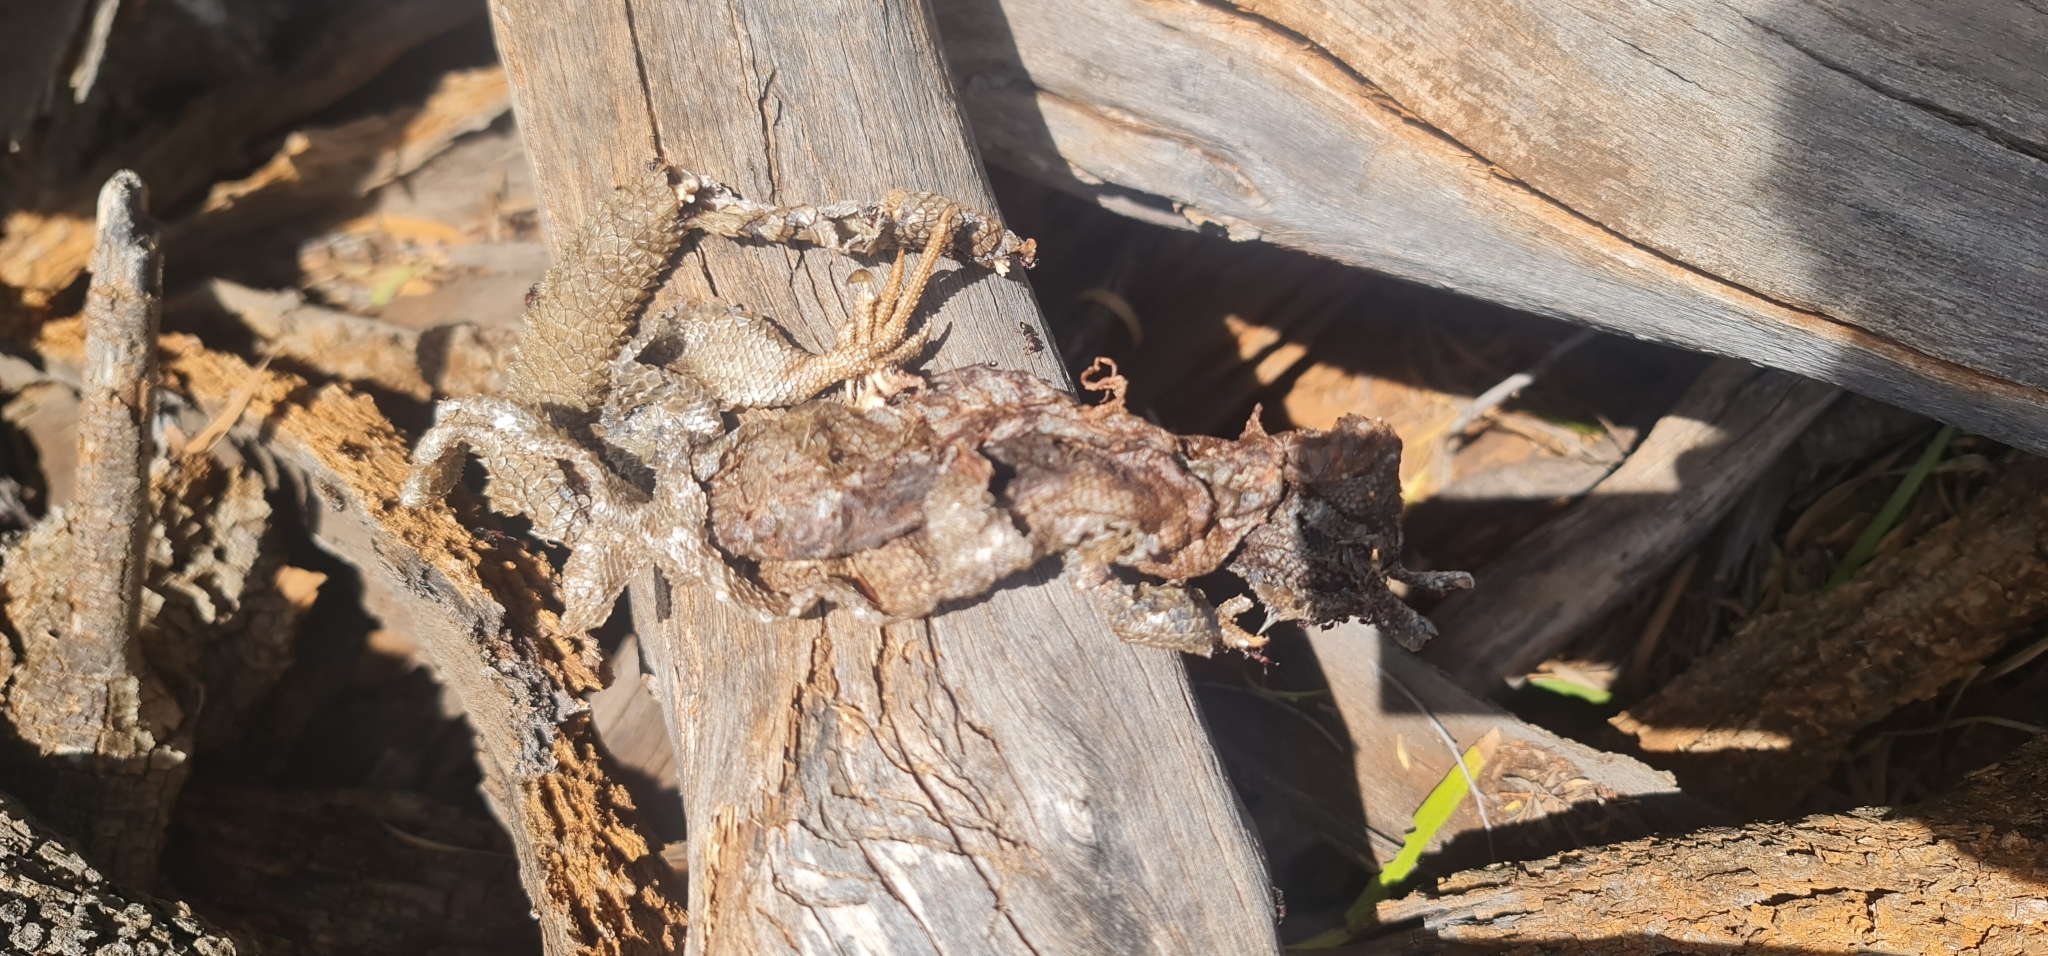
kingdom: Animalia
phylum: Chordata
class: Squamata
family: Agamidae
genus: Pogona
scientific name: Pogona vitticeps
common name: Central bearded dragon
